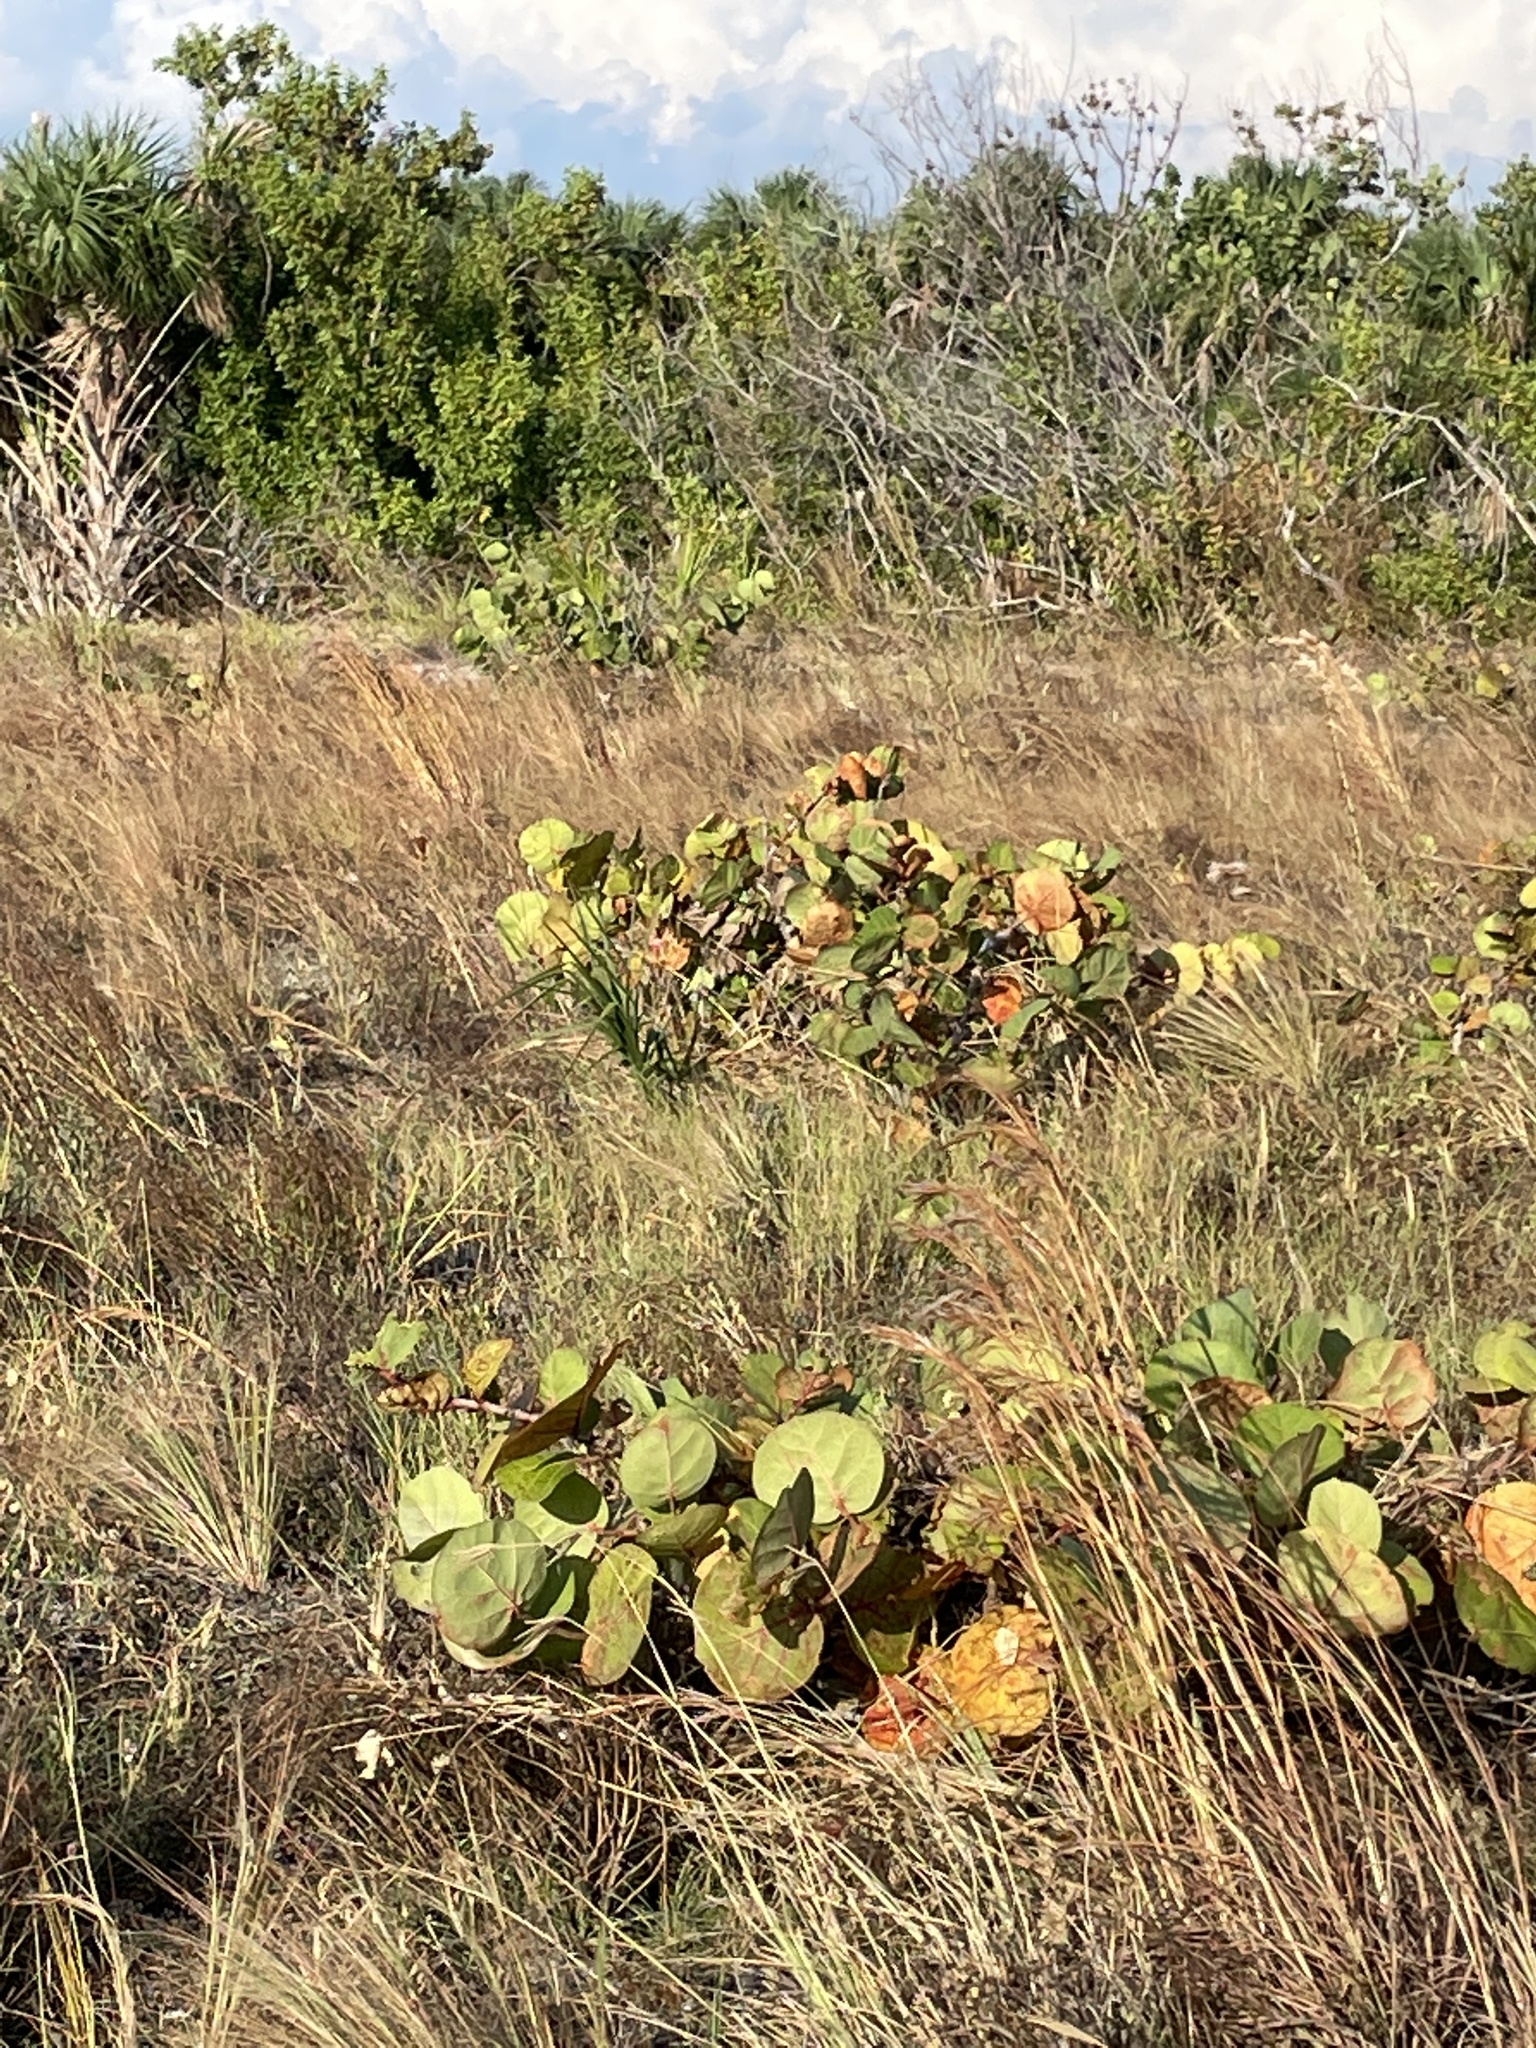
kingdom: Plantae
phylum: Tracheophyta
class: Magnoliopsida
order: Caryophyllales
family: Polygonaceae
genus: Coccoloba
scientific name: Coccoloba uvifera
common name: Seagrape
